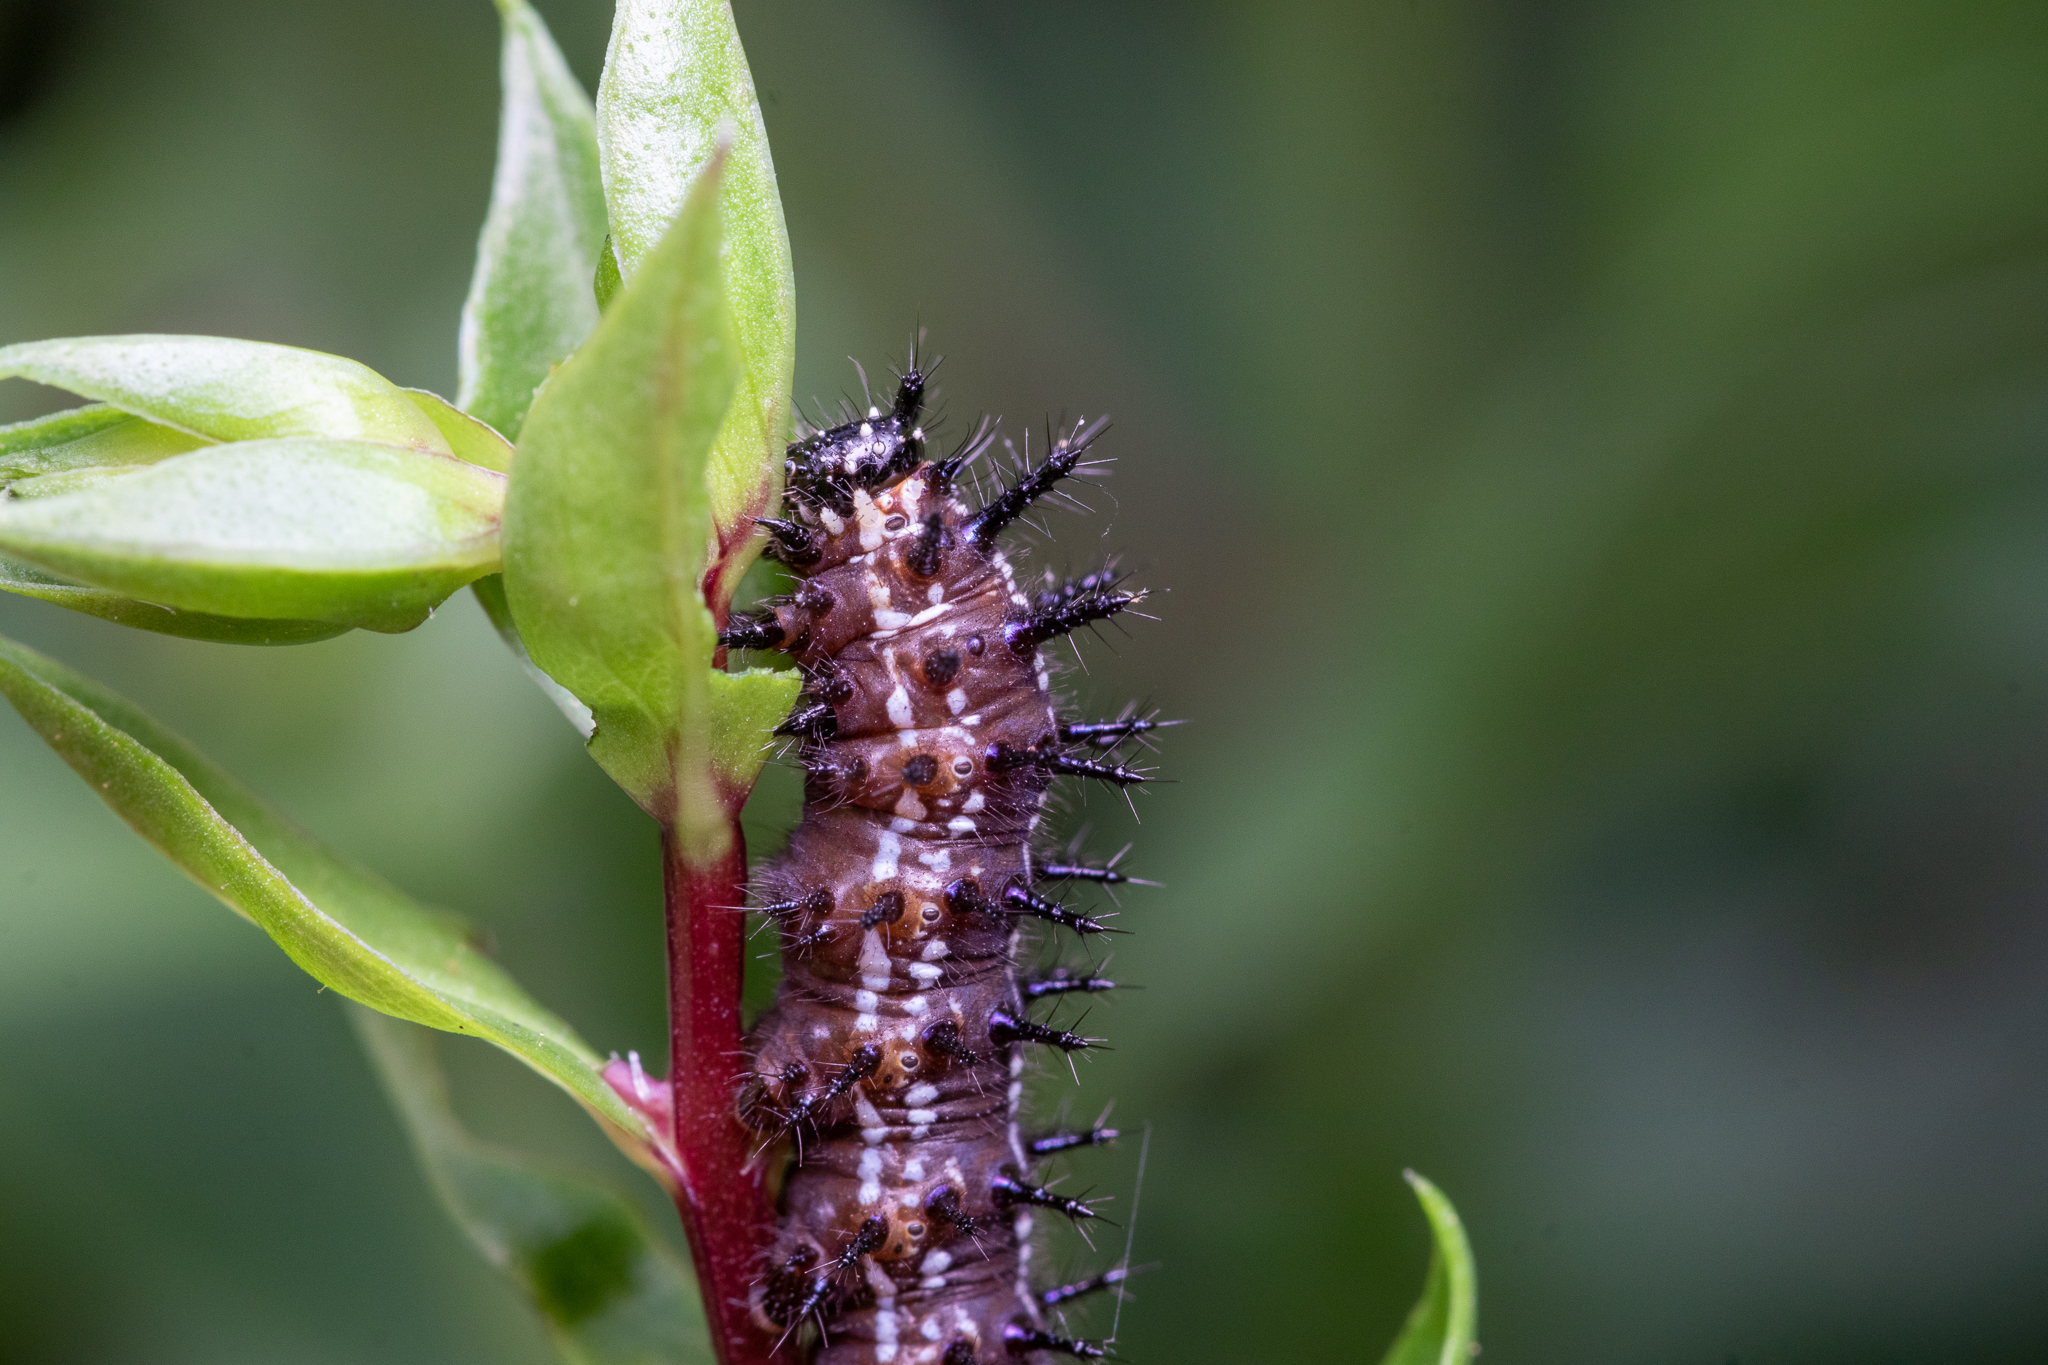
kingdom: Animalia
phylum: Arthropoda
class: Insecta
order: Lepidoptera
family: Nymphalidae
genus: Junonia
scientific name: Junonia coenia
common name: Common buckeye
